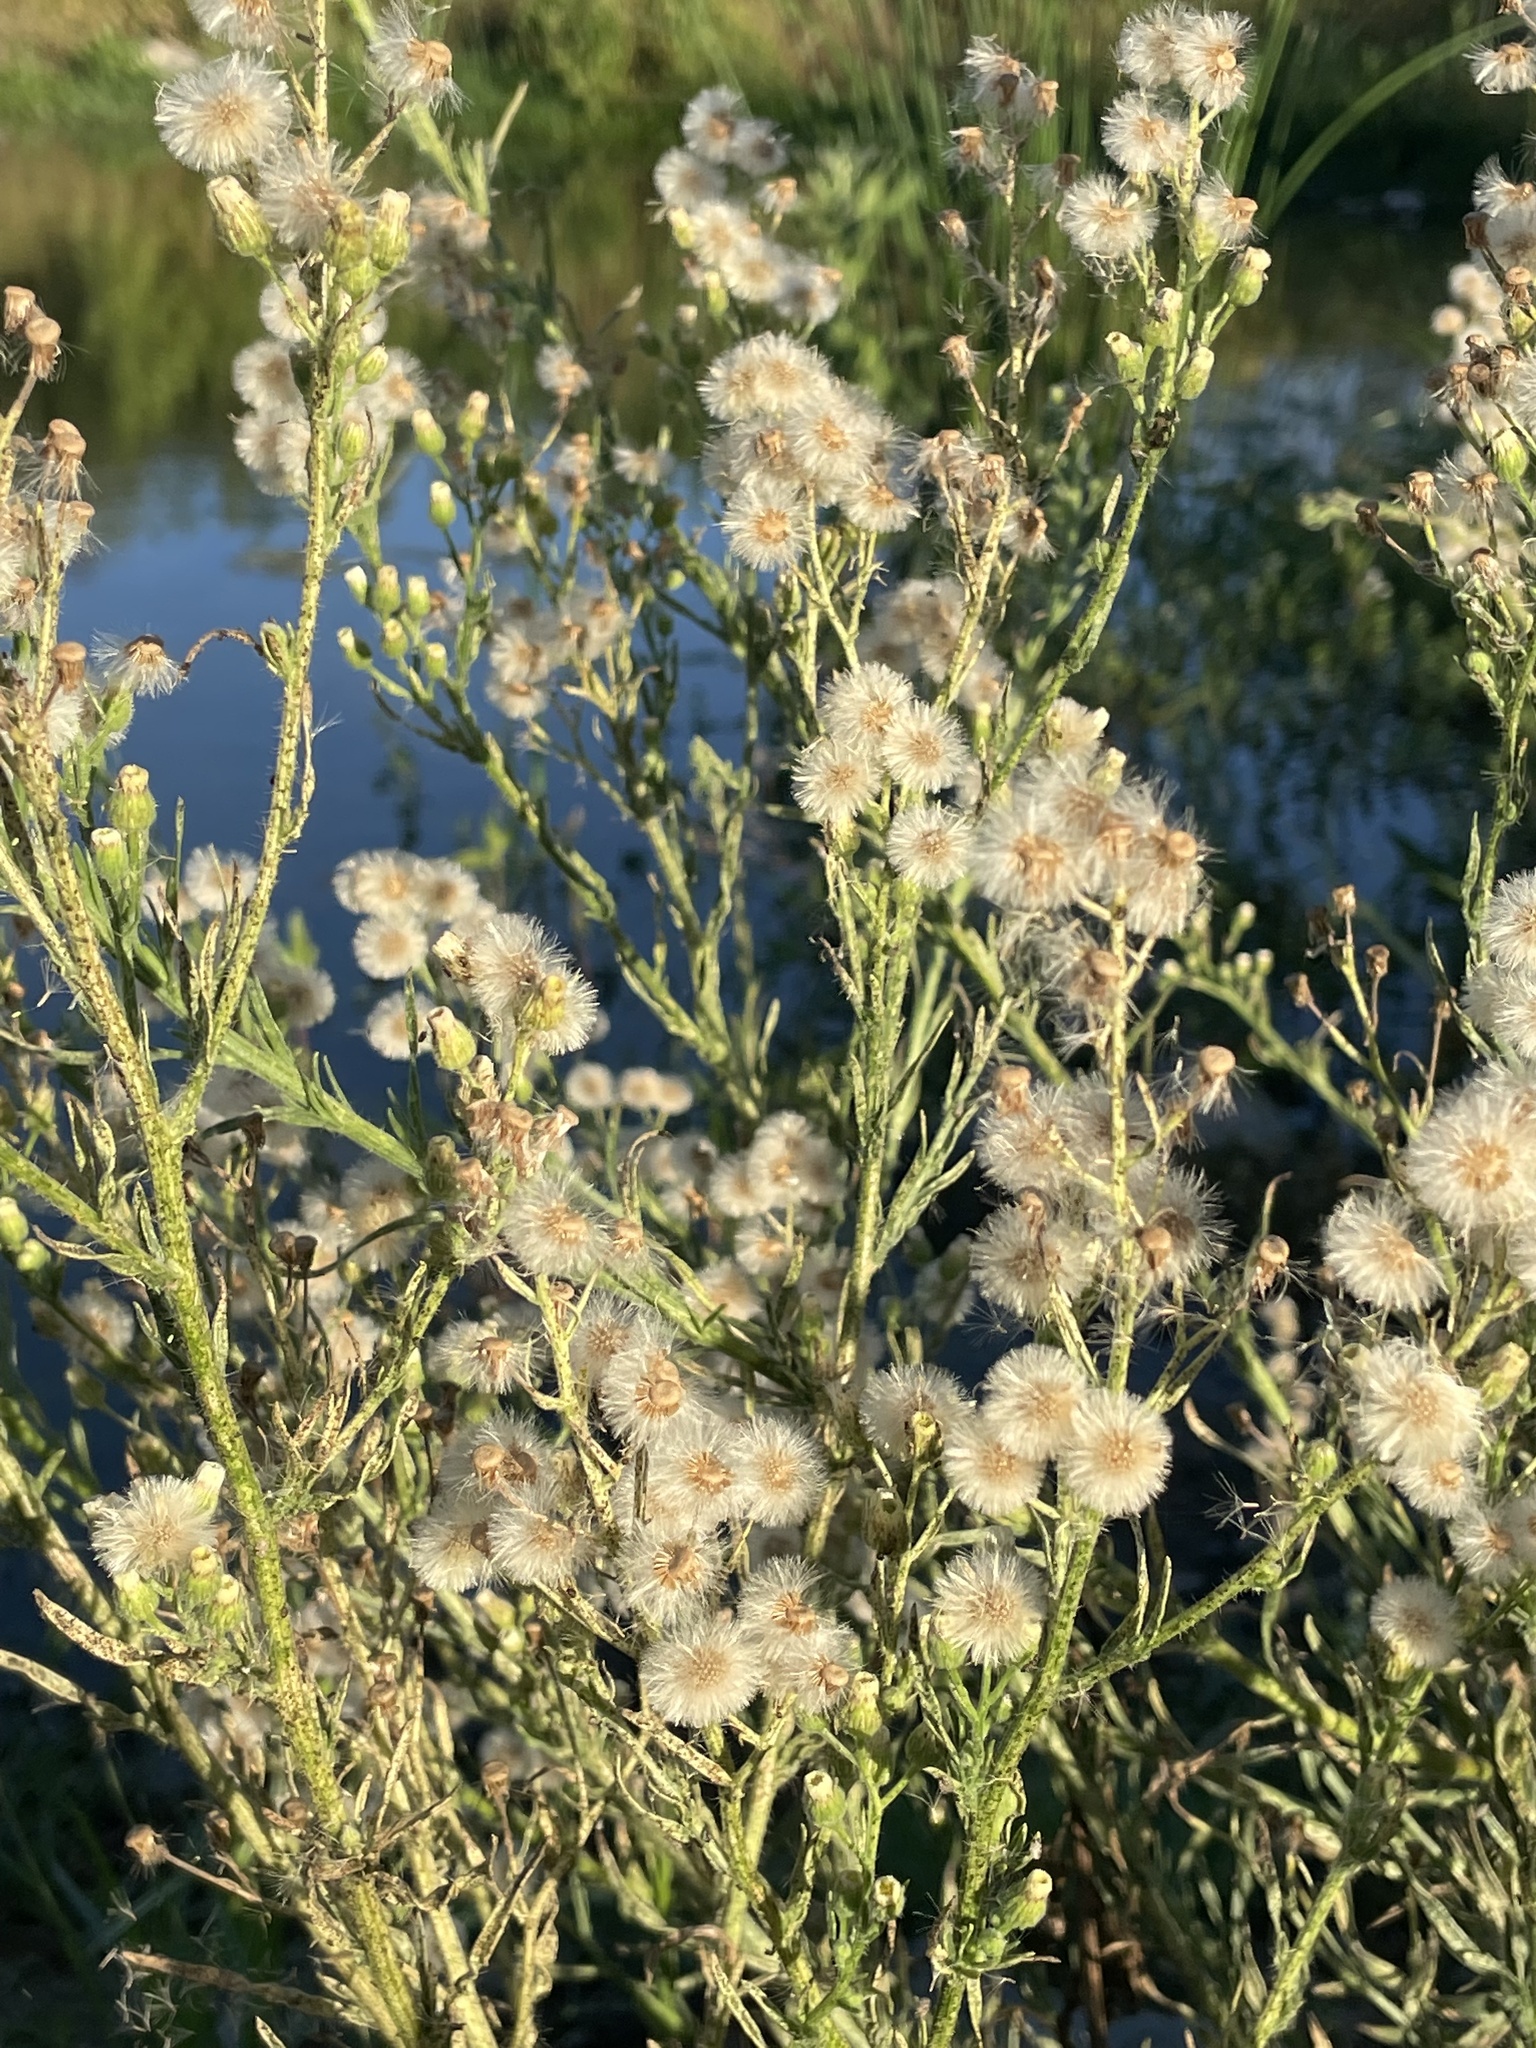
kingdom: Plantae
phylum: Tracheophyta
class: Magnoliopsida
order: Asterales
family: Asteraceae
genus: Erigeron
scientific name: Erigeron bonariensis
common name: Argentine fleabane
